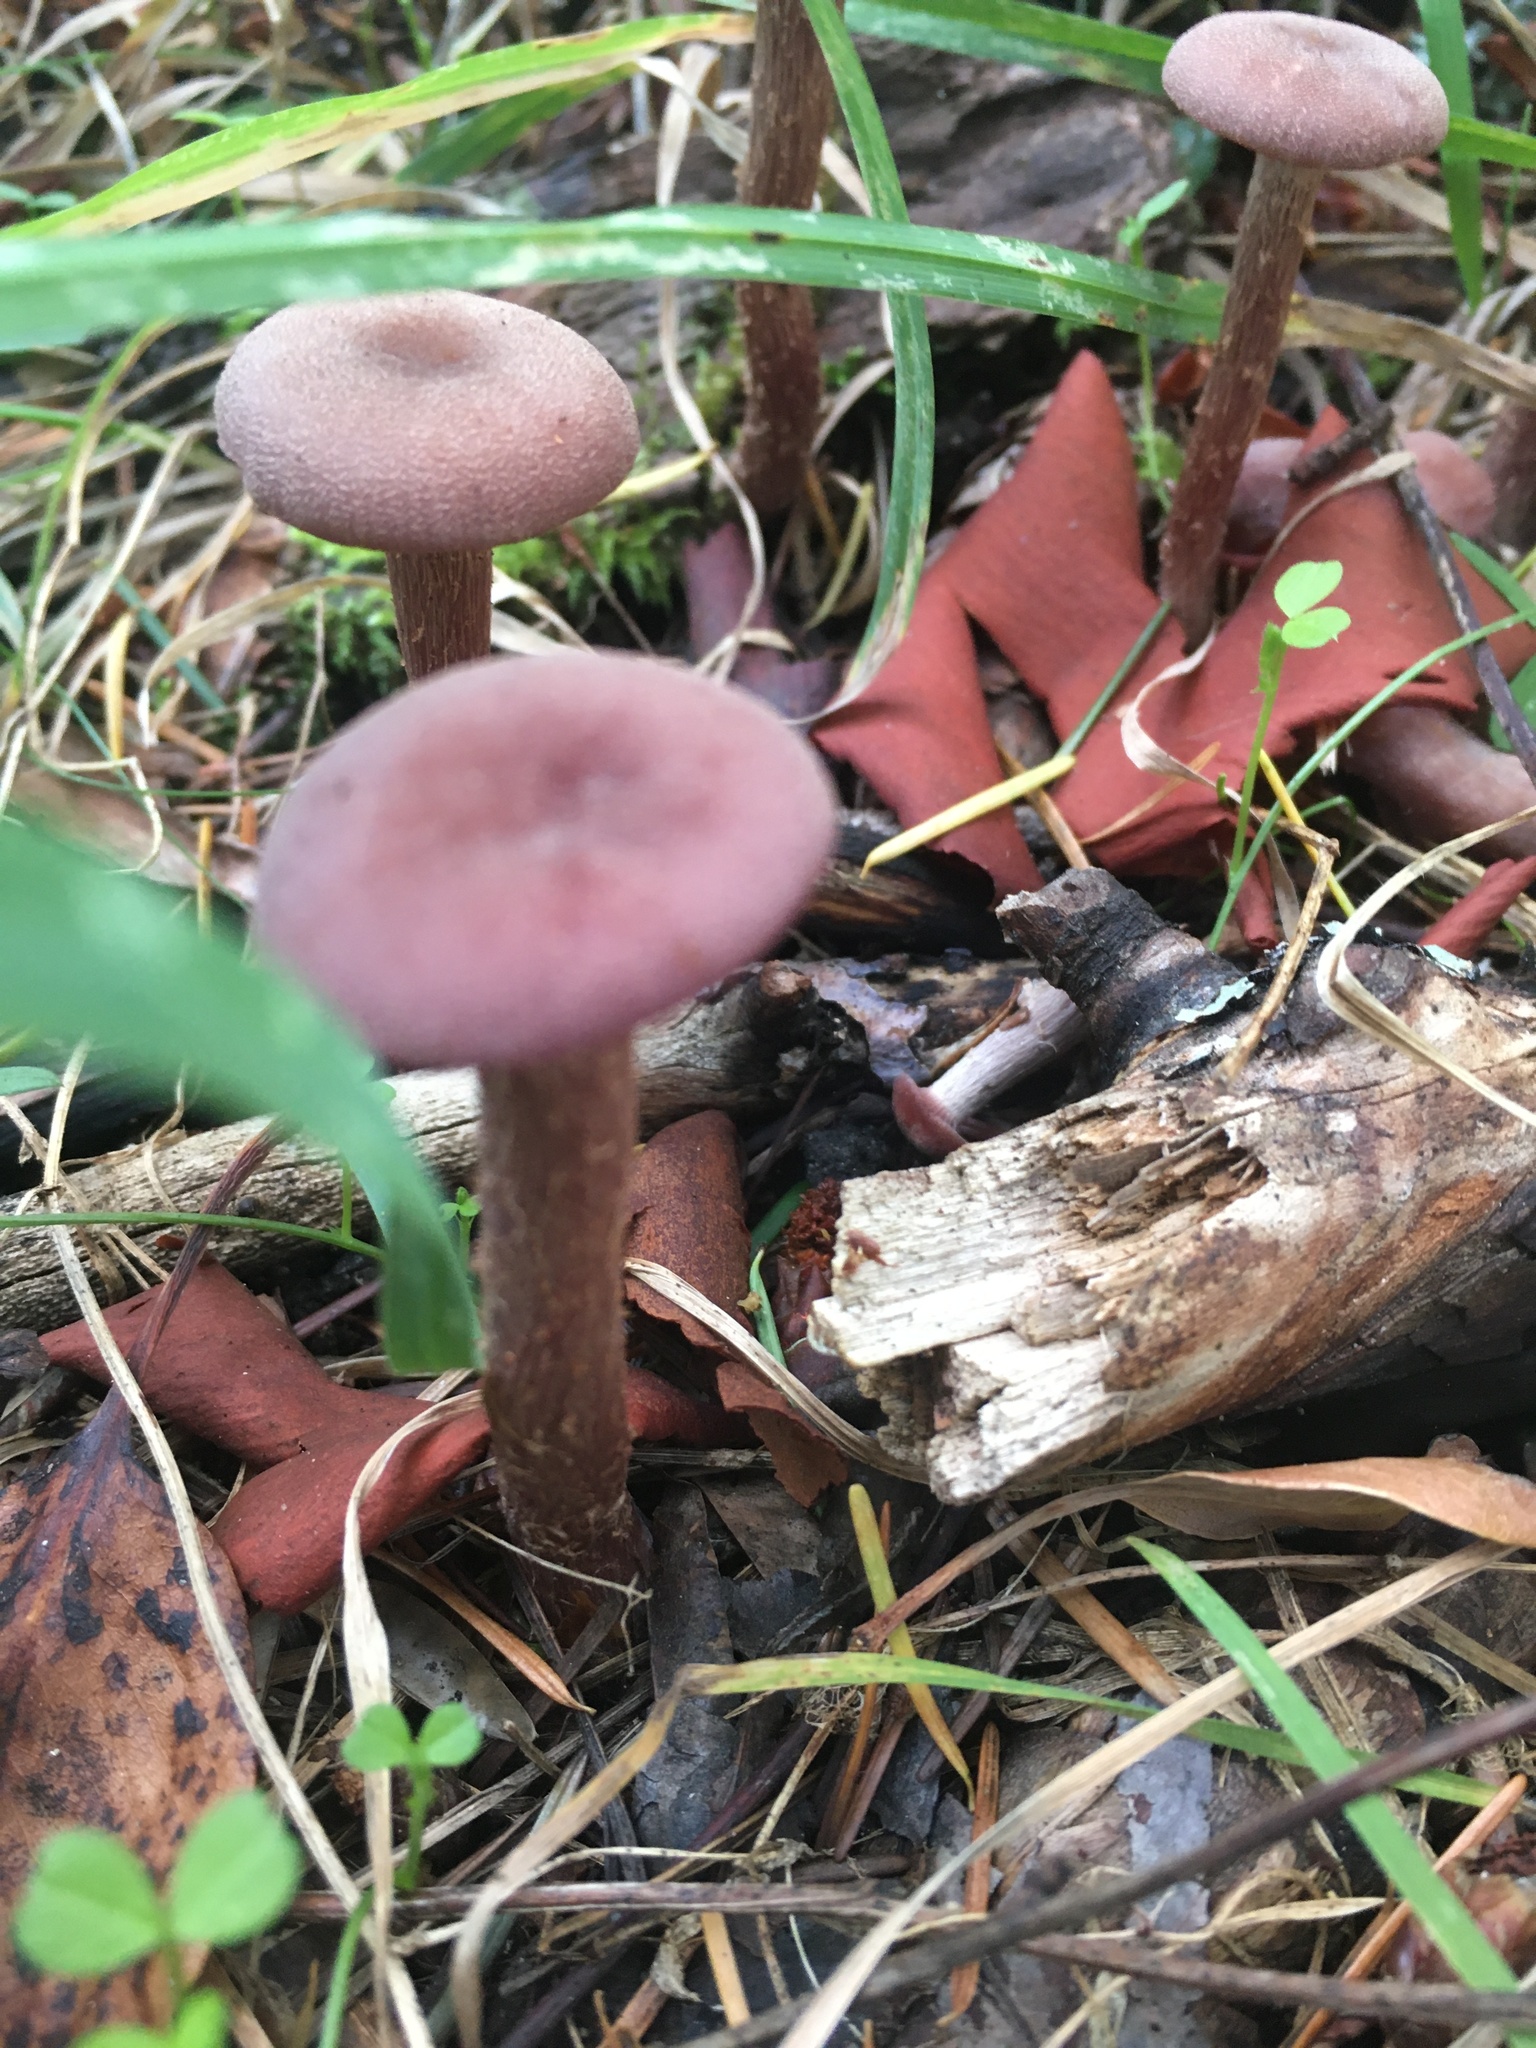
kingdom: Fungi
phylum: Basidiomycota
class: Agaricomycetes
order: Agaricales
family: Hydnangiaceae
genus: Laccaria
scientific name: Laccaria amethysteo-occidentalis
